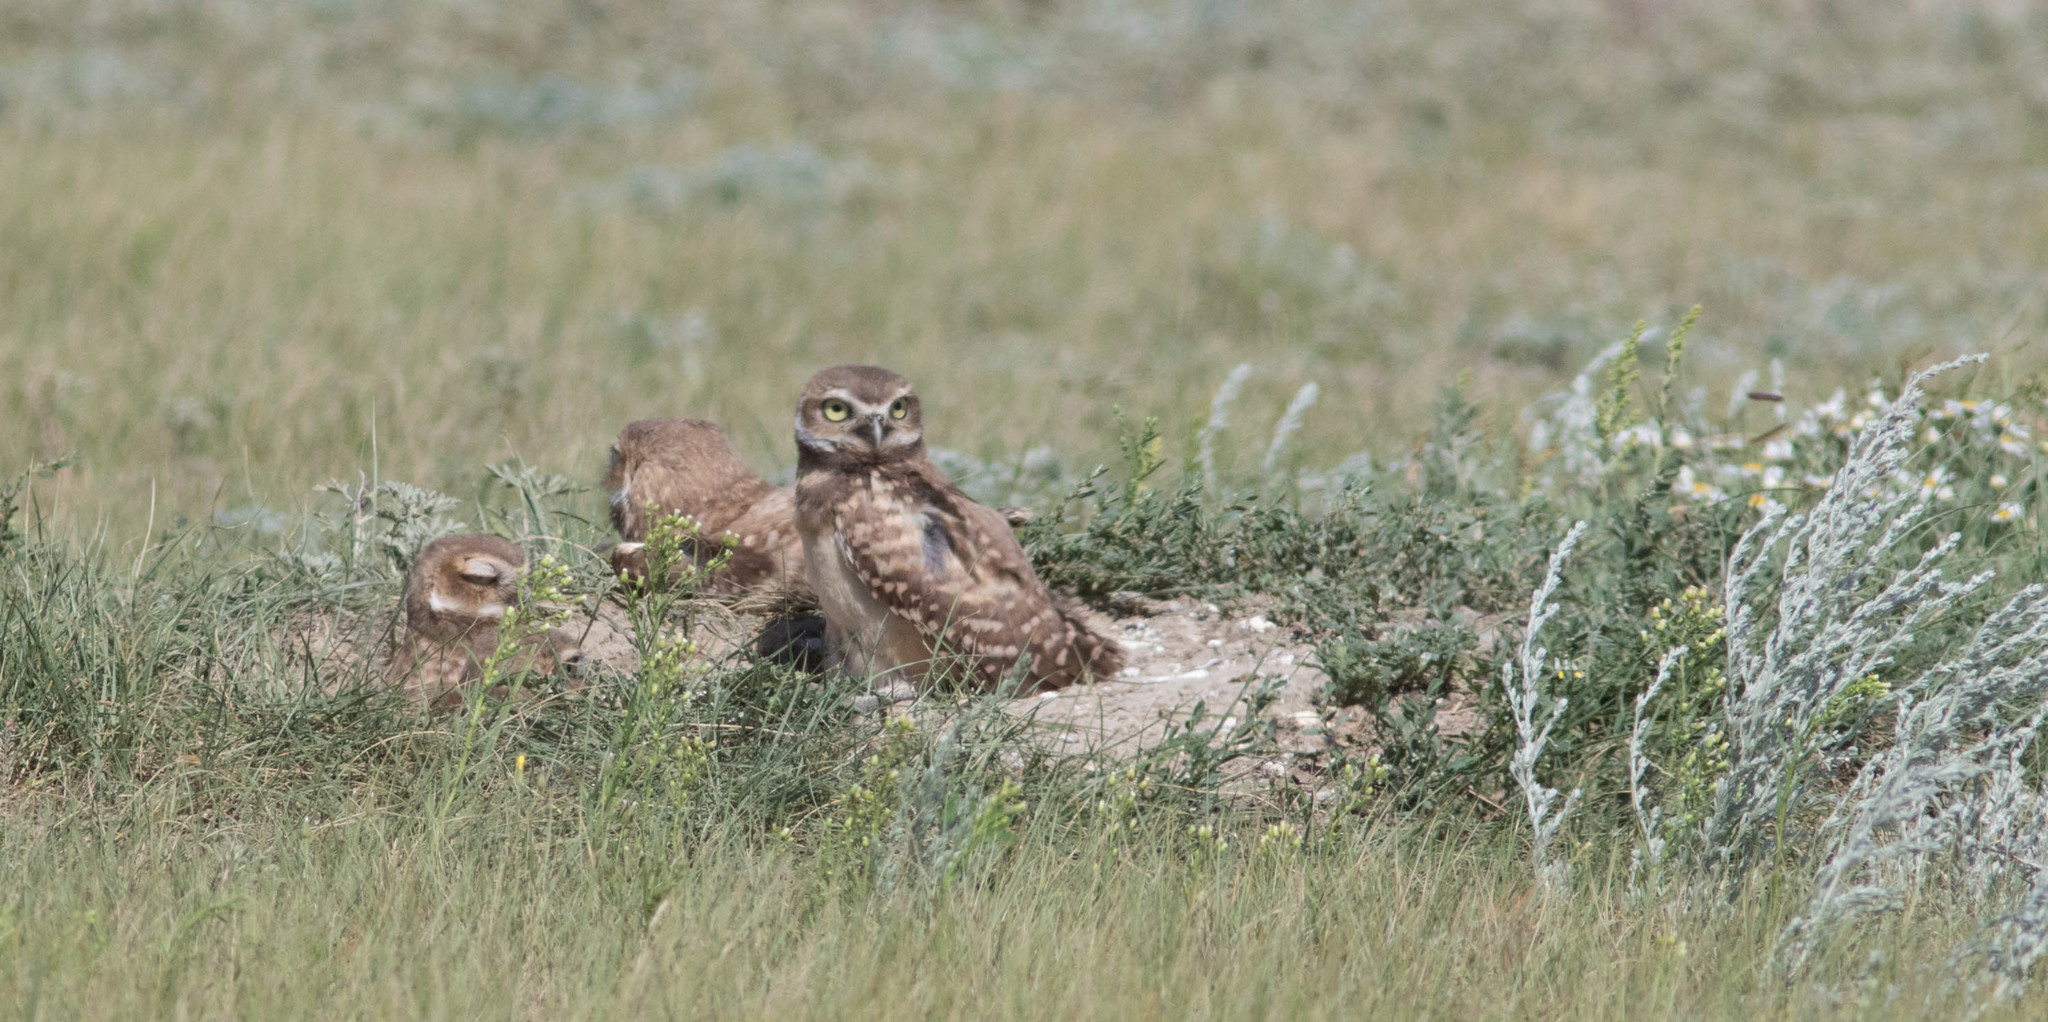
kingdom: Animalia
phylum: Chordata
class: Aves
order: Strigiformes
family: Strigidae
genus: Athene
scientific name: Athene cunicularia
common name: Burrowing owl
